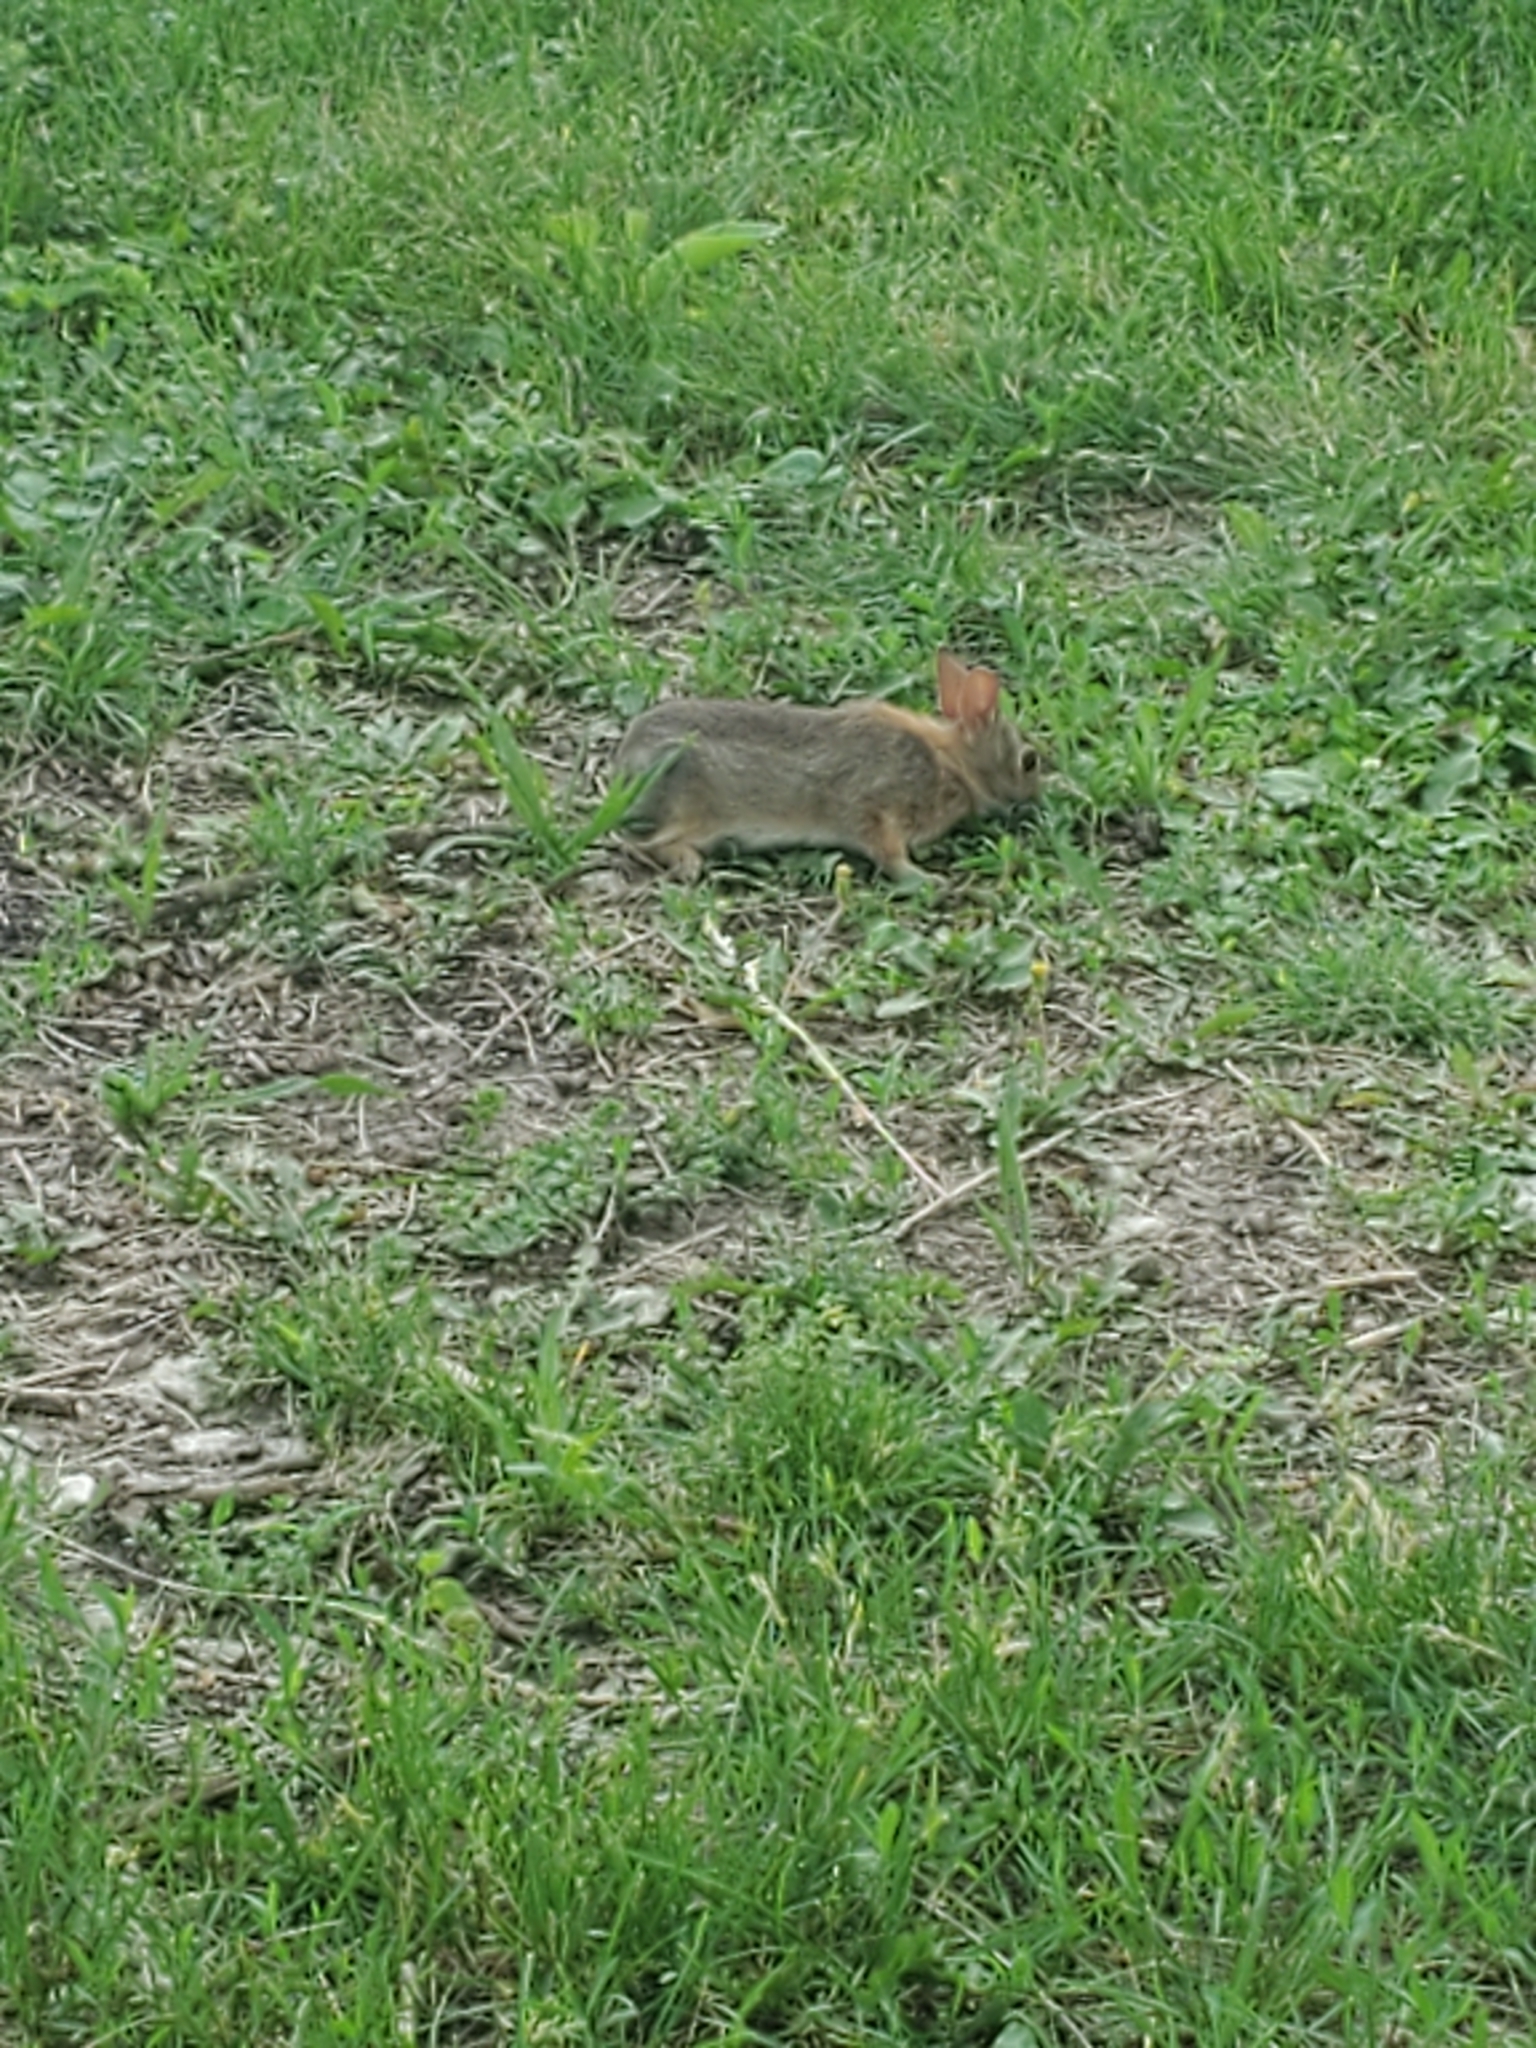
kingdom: Animalia
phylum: Chordata
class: Mammalia
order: Lagomorpha
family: Leporidae
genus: Sylvilagus
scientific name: Sylvilagus floridanus
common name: Eastern cottontail
